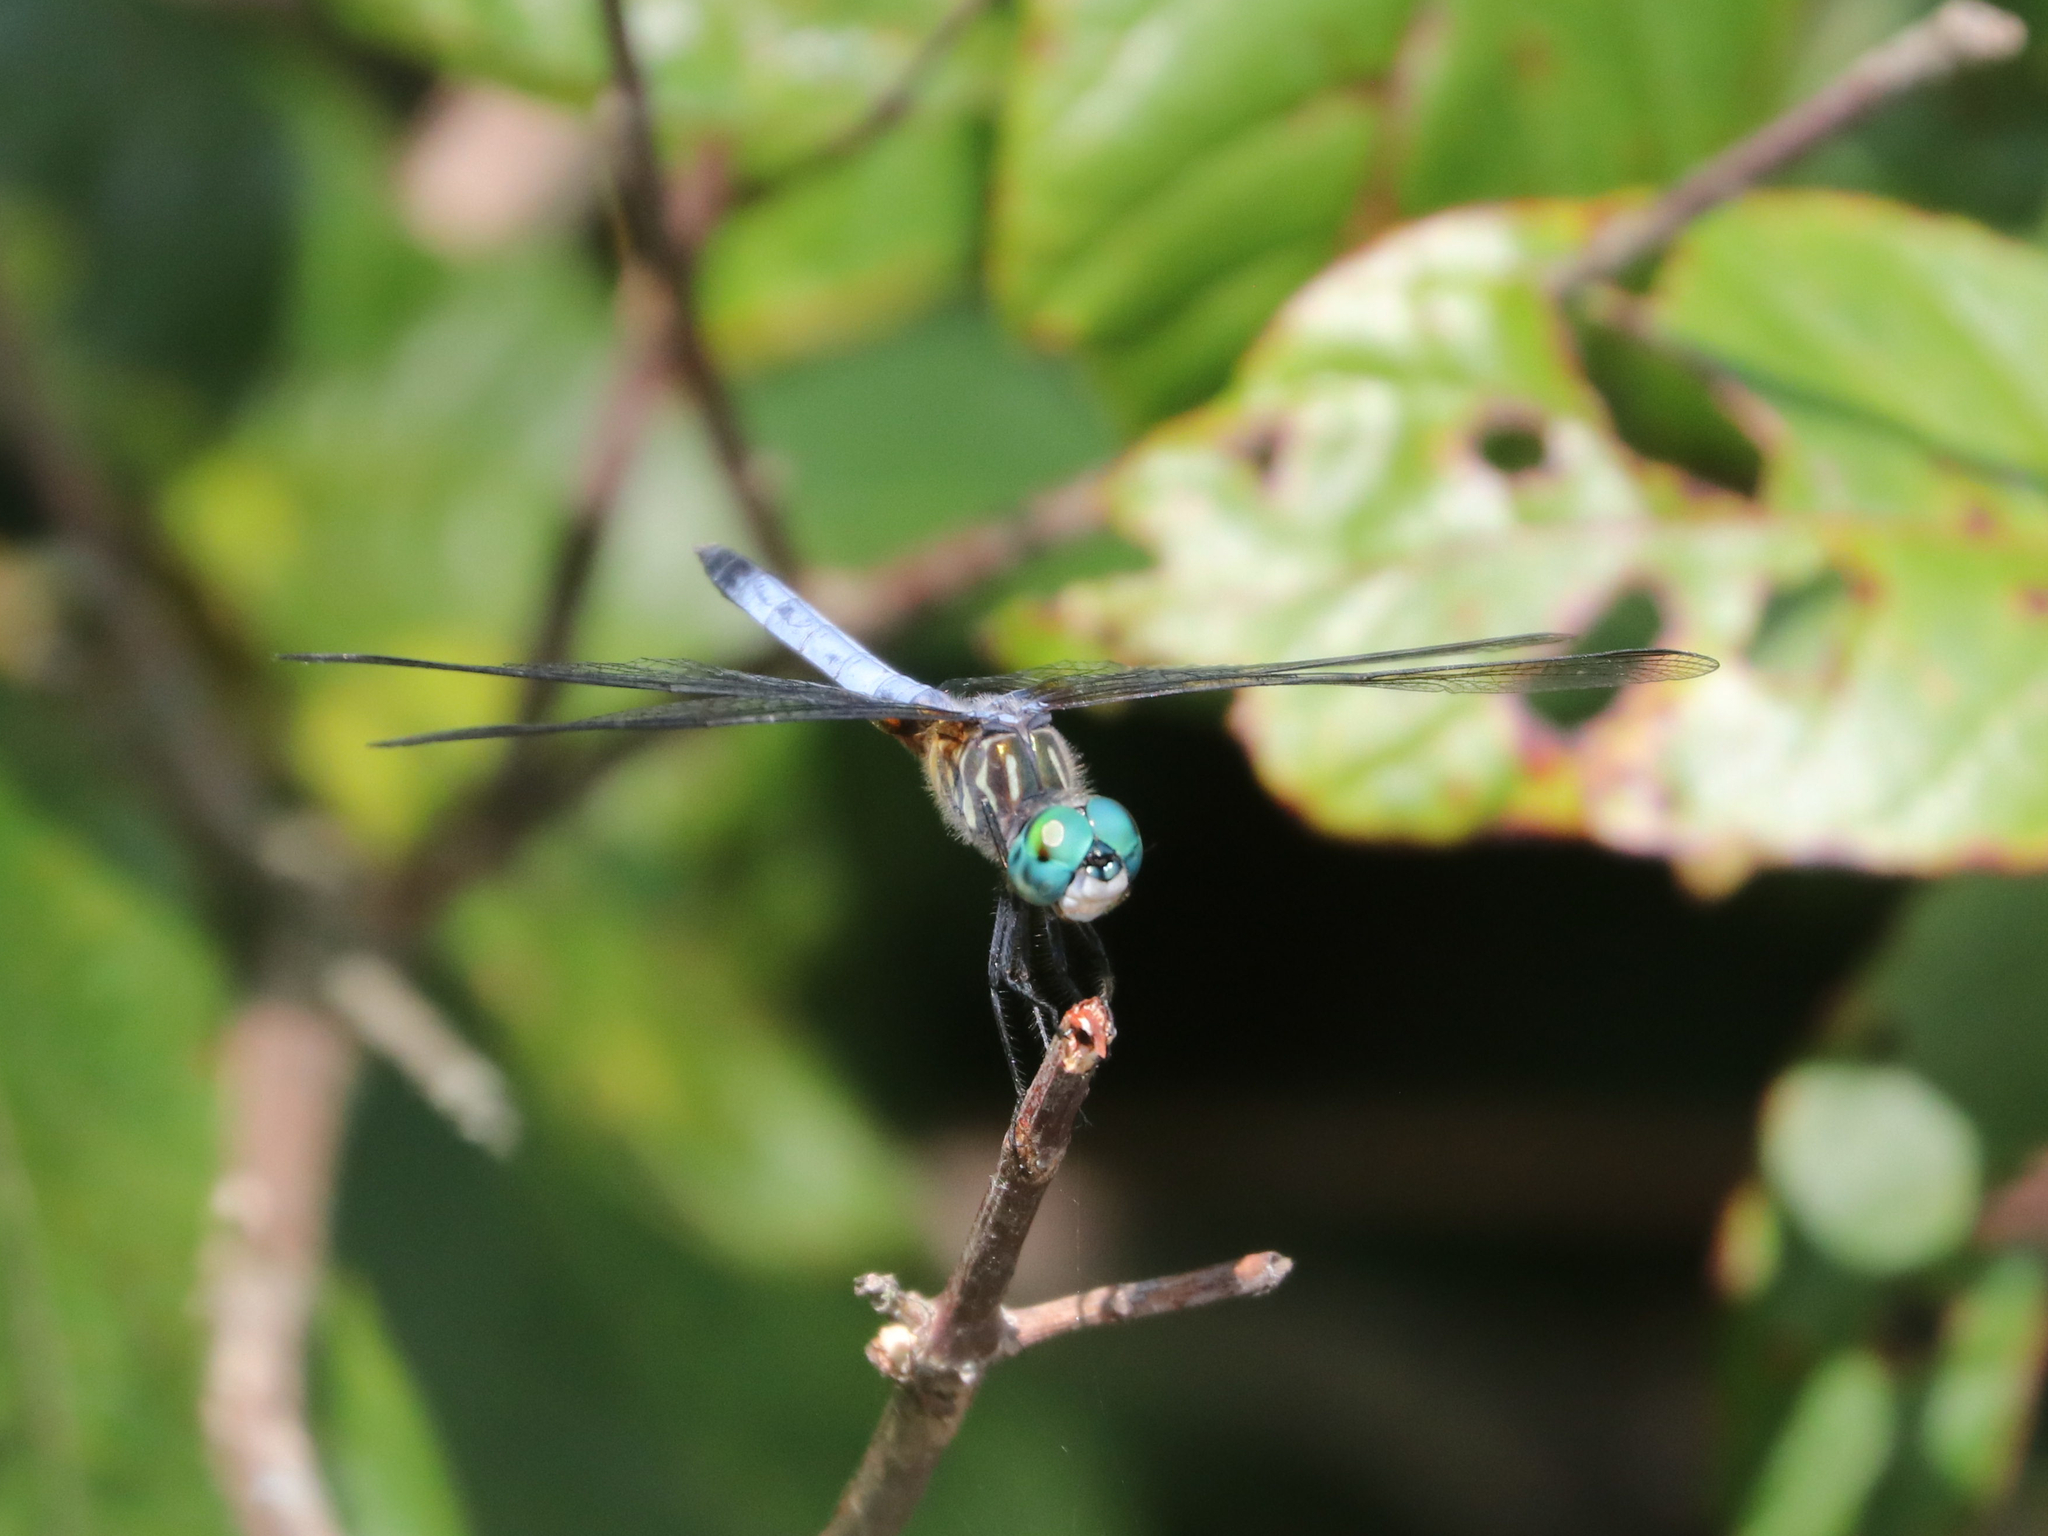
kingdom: Animalia
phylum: Arthropoda
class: Insecta
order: Odonata
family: Libellulidae
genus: Pachydiplax
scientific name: Pachydiplax longipennis
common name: Blue dasher
